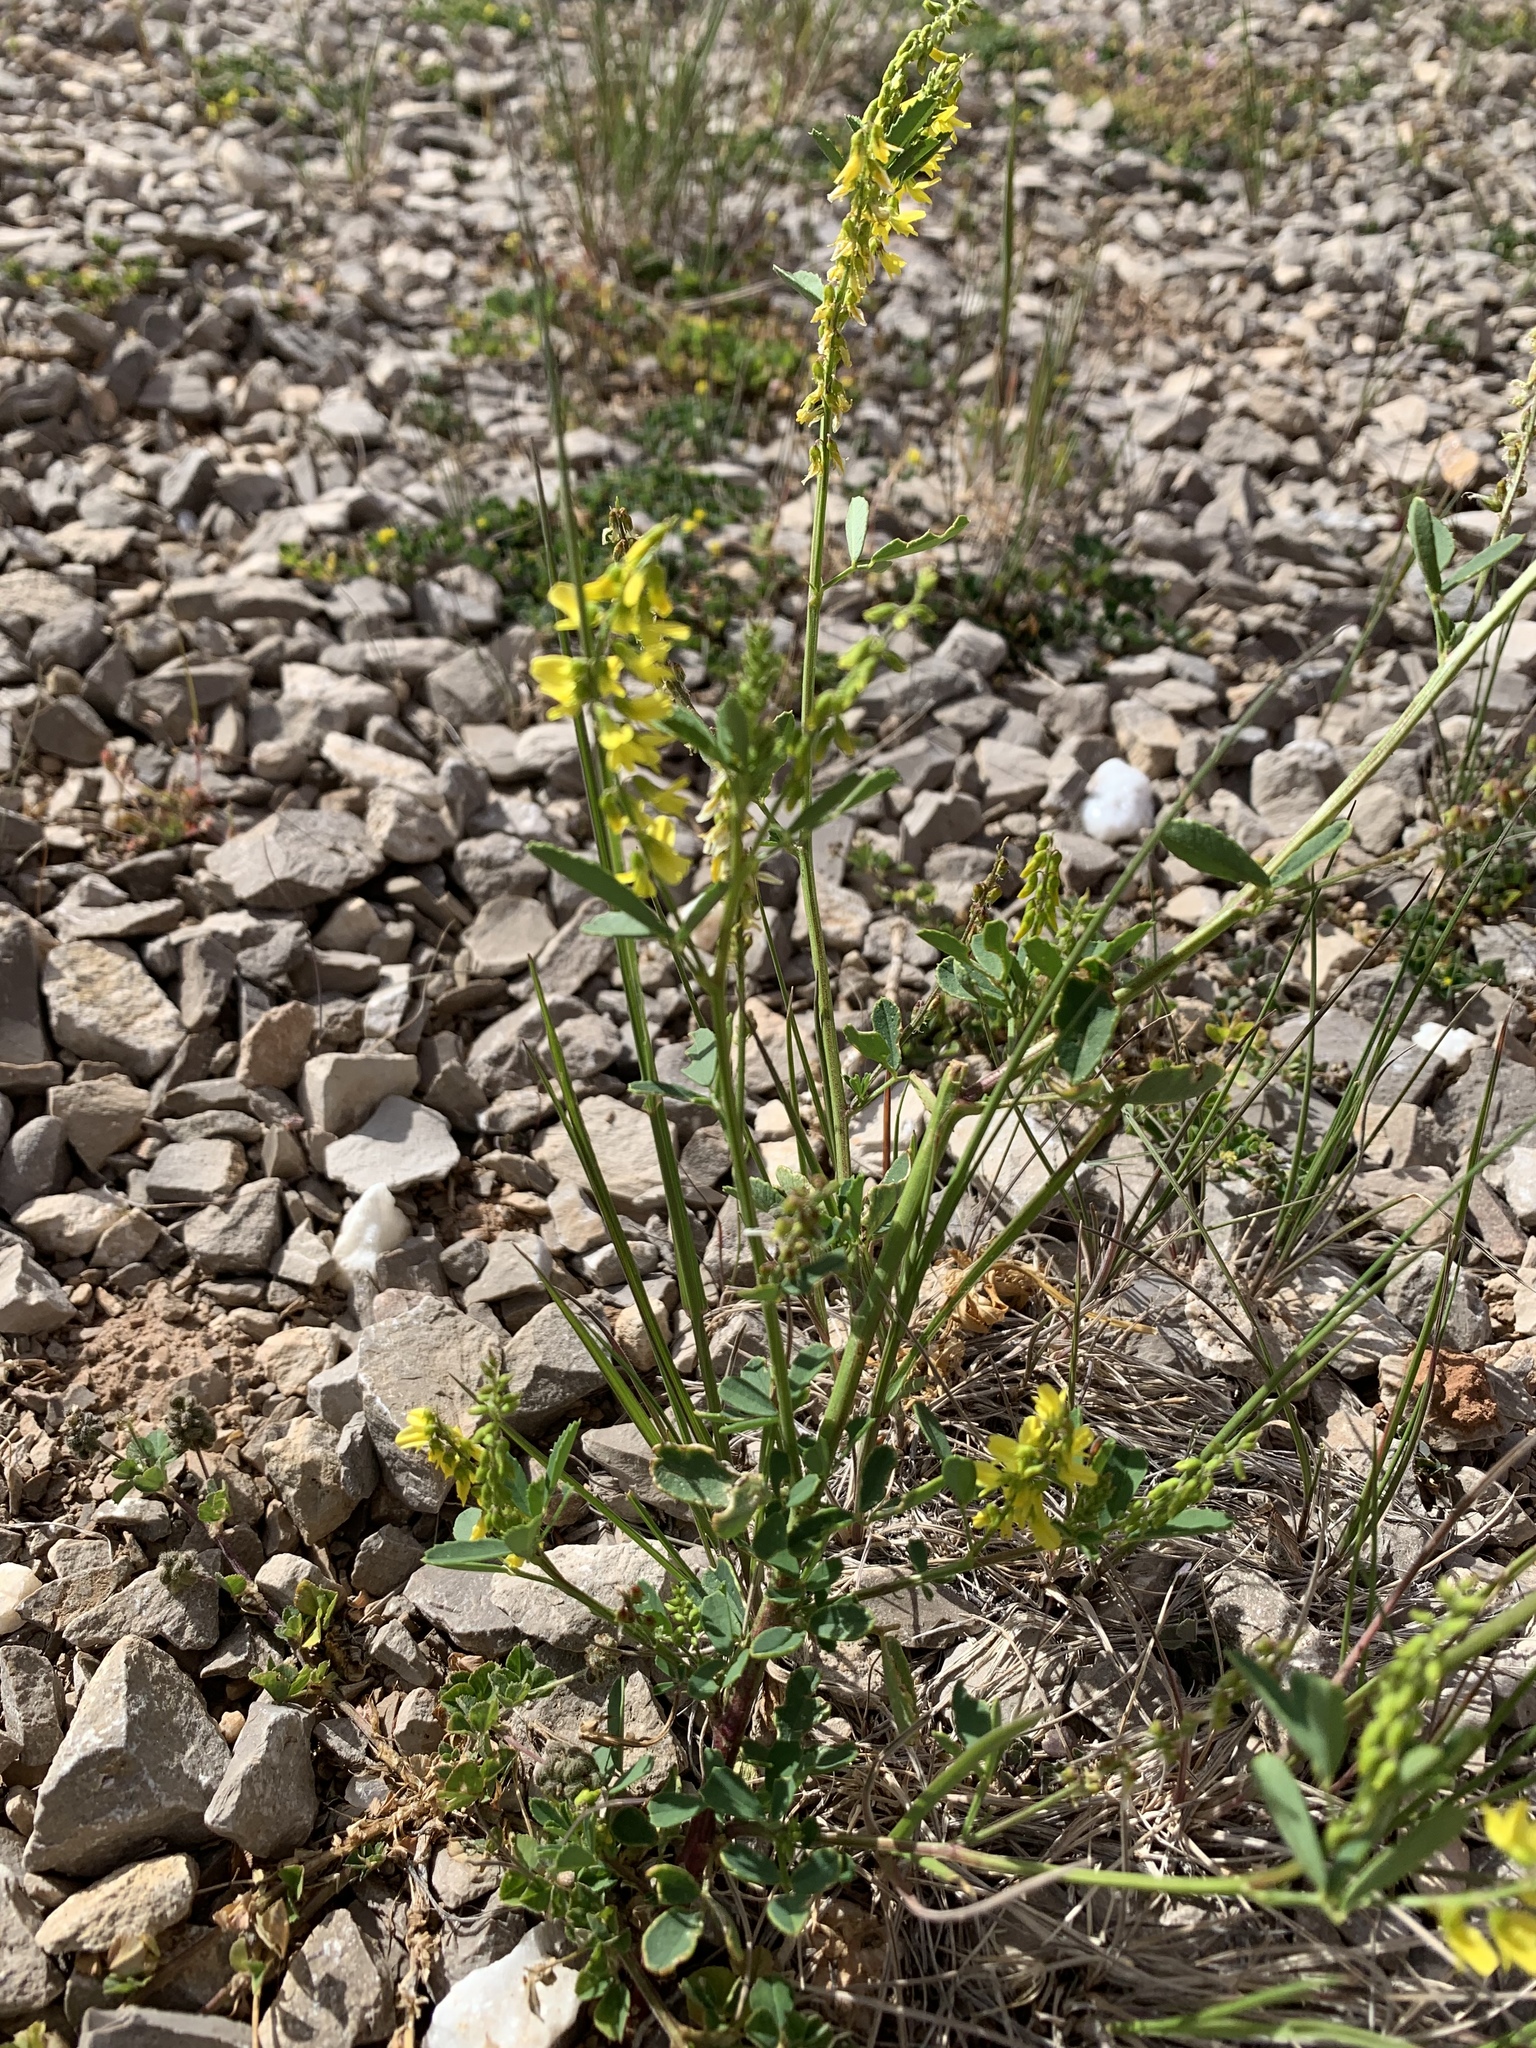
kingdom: Plantae
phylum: Tracheophyta
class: Magnoliopsida
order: Fabales
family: Fabaceae
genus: Melilotus
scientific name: Melilotus officinalis
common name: Sweetclover
